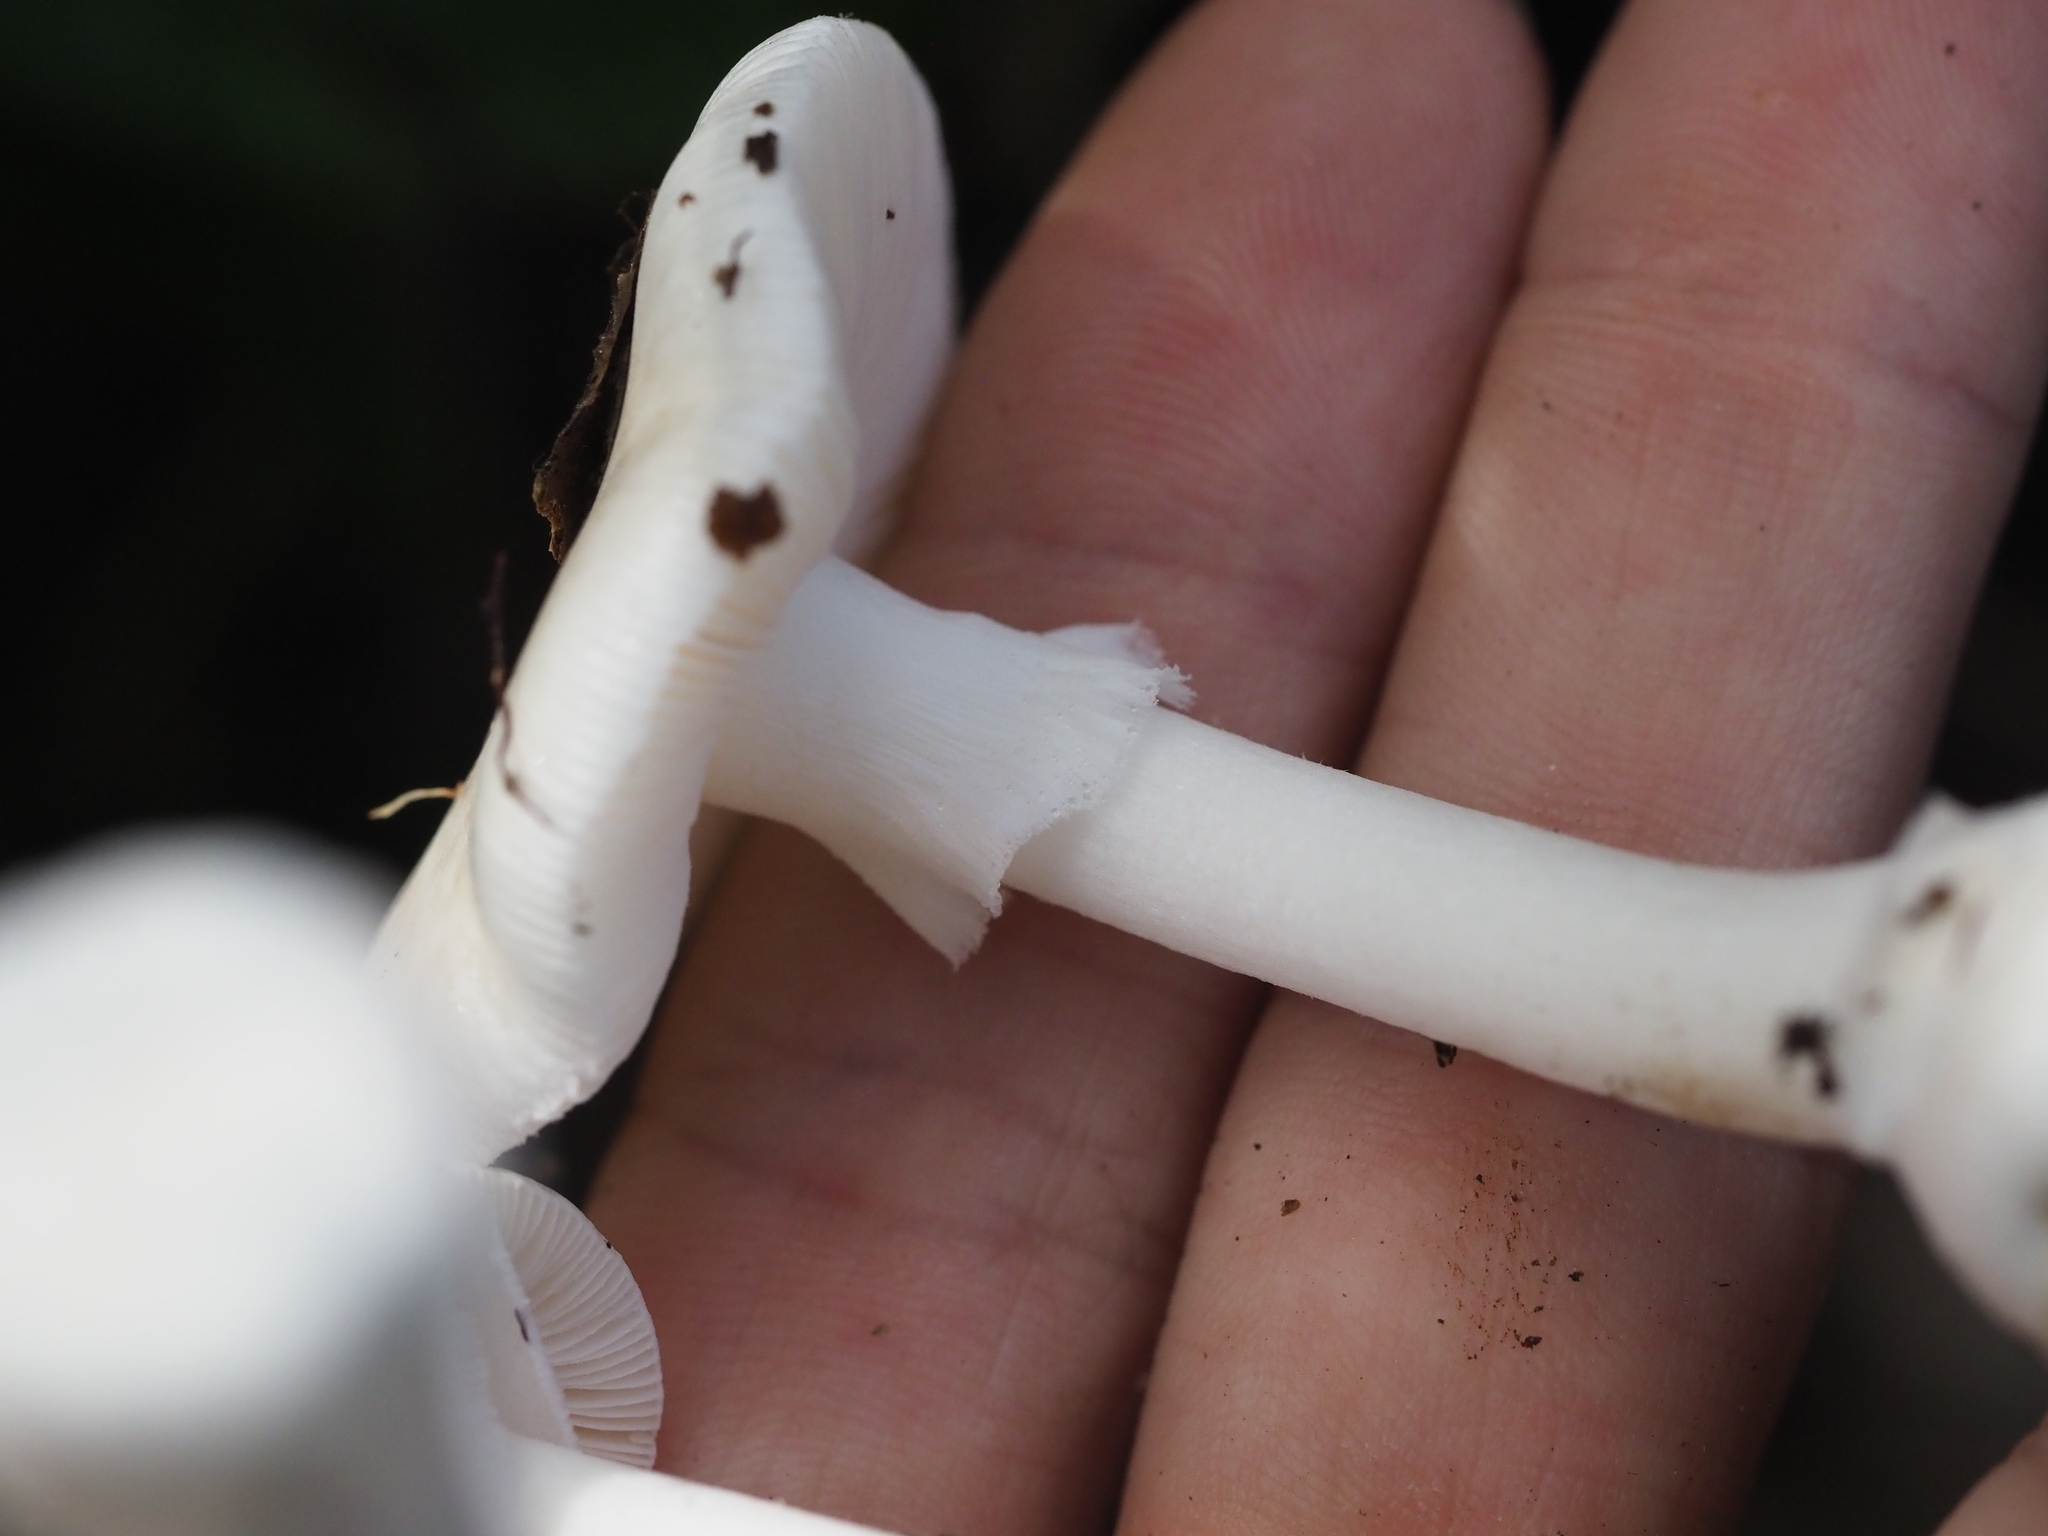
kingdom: Fungi
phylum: Basidiomycota
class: Agaricomycetes
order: Agaricales
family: Amanitaceae
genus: Amanita
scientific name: Amanita marmorata
